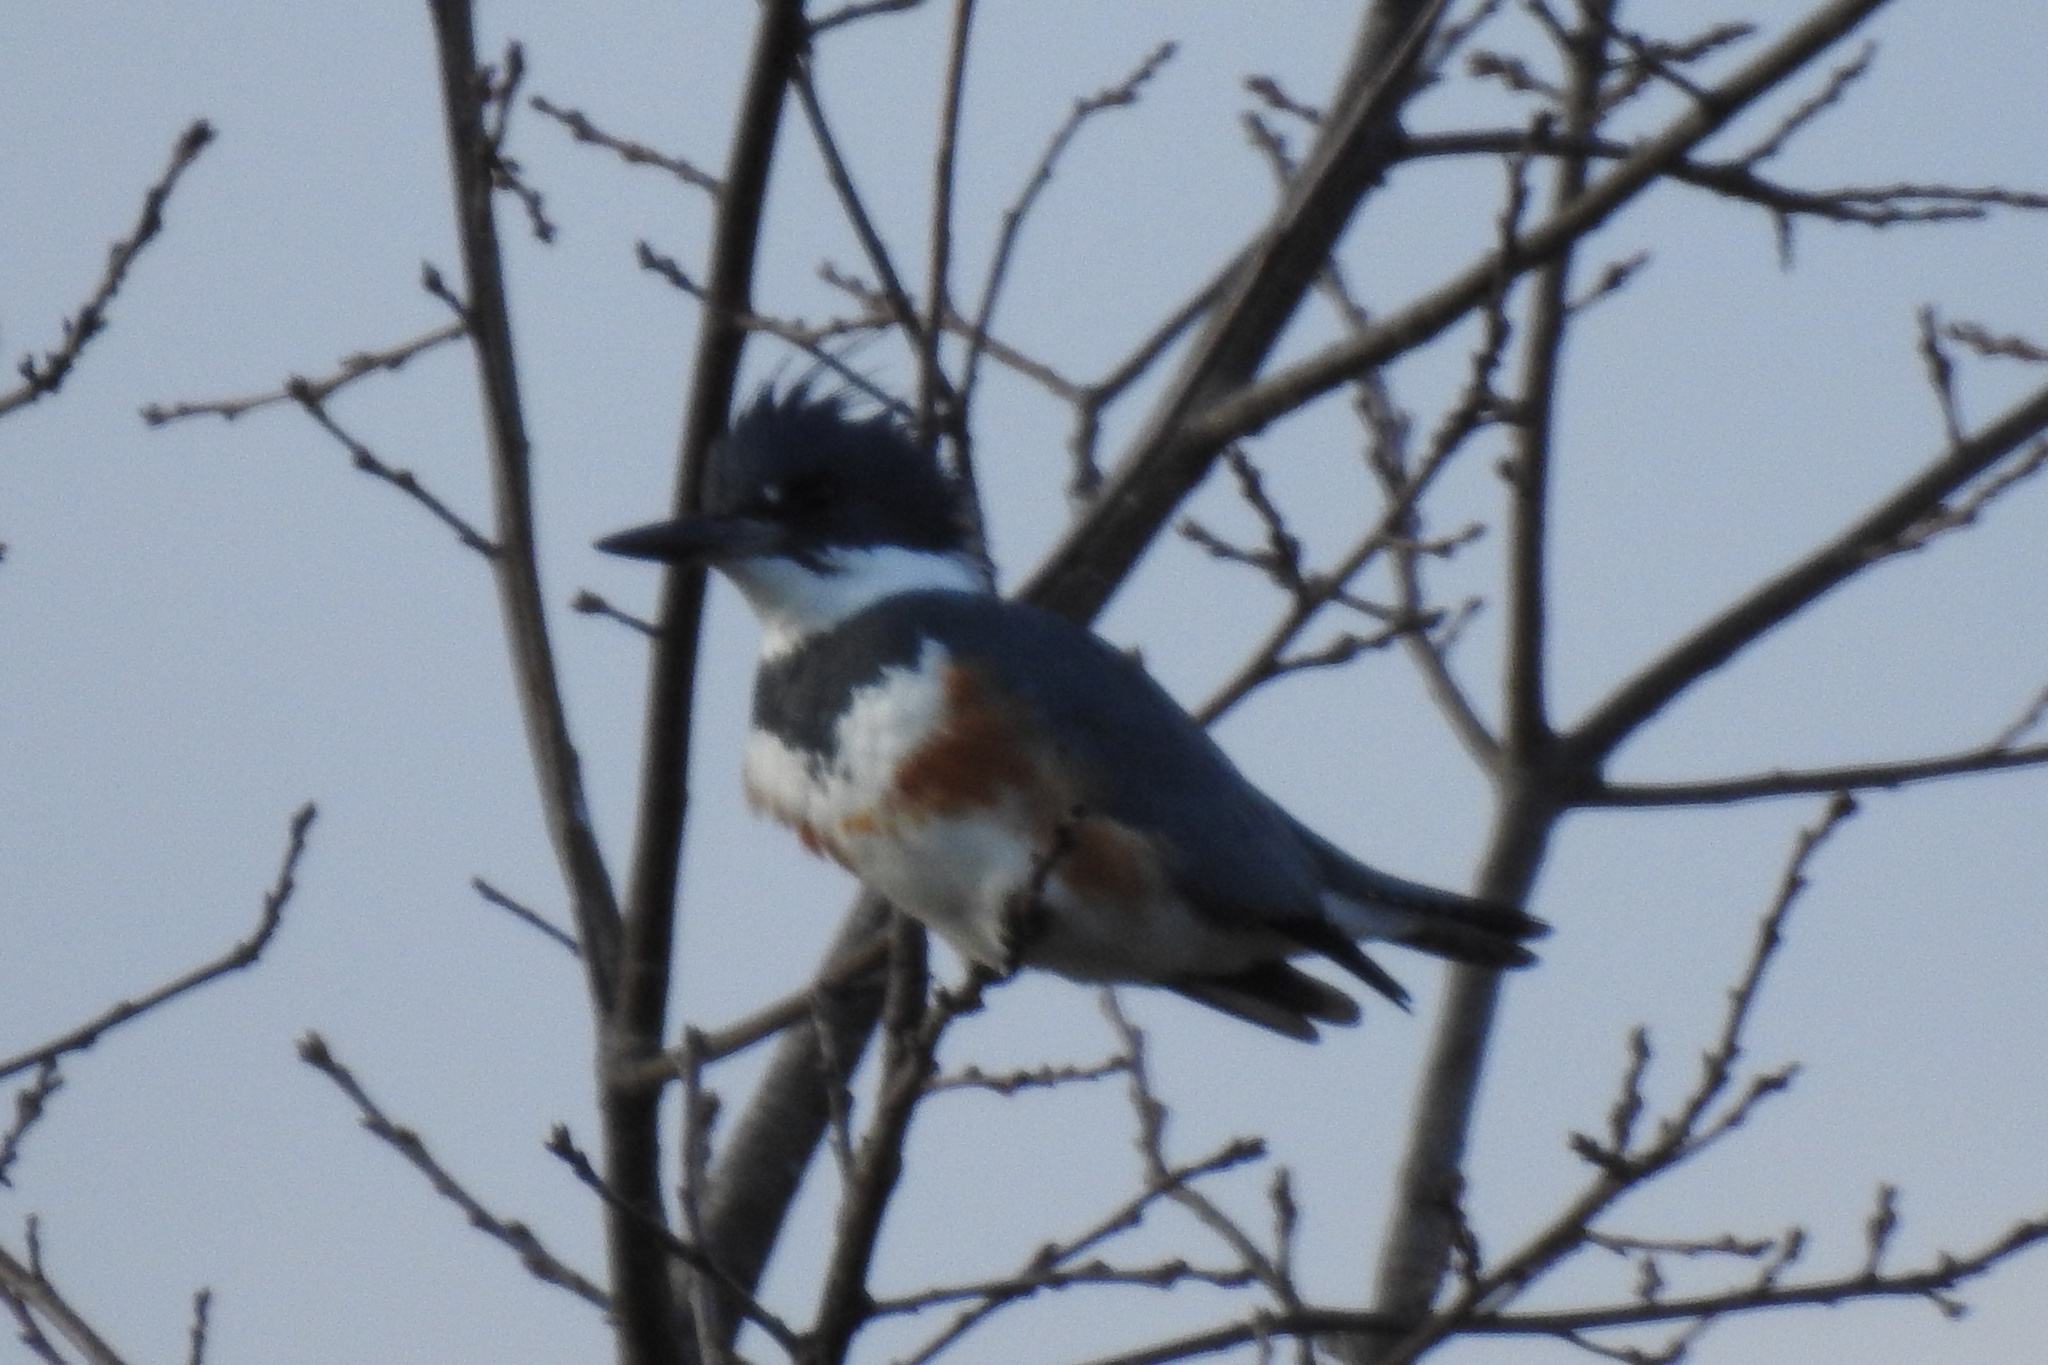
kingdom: Animalia
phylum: Chordata
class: Aves
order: Coraciiformes
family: Alcedinidae
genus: Megaceryle
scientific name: Megaceryle alcyon
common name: Belted kingfisher
